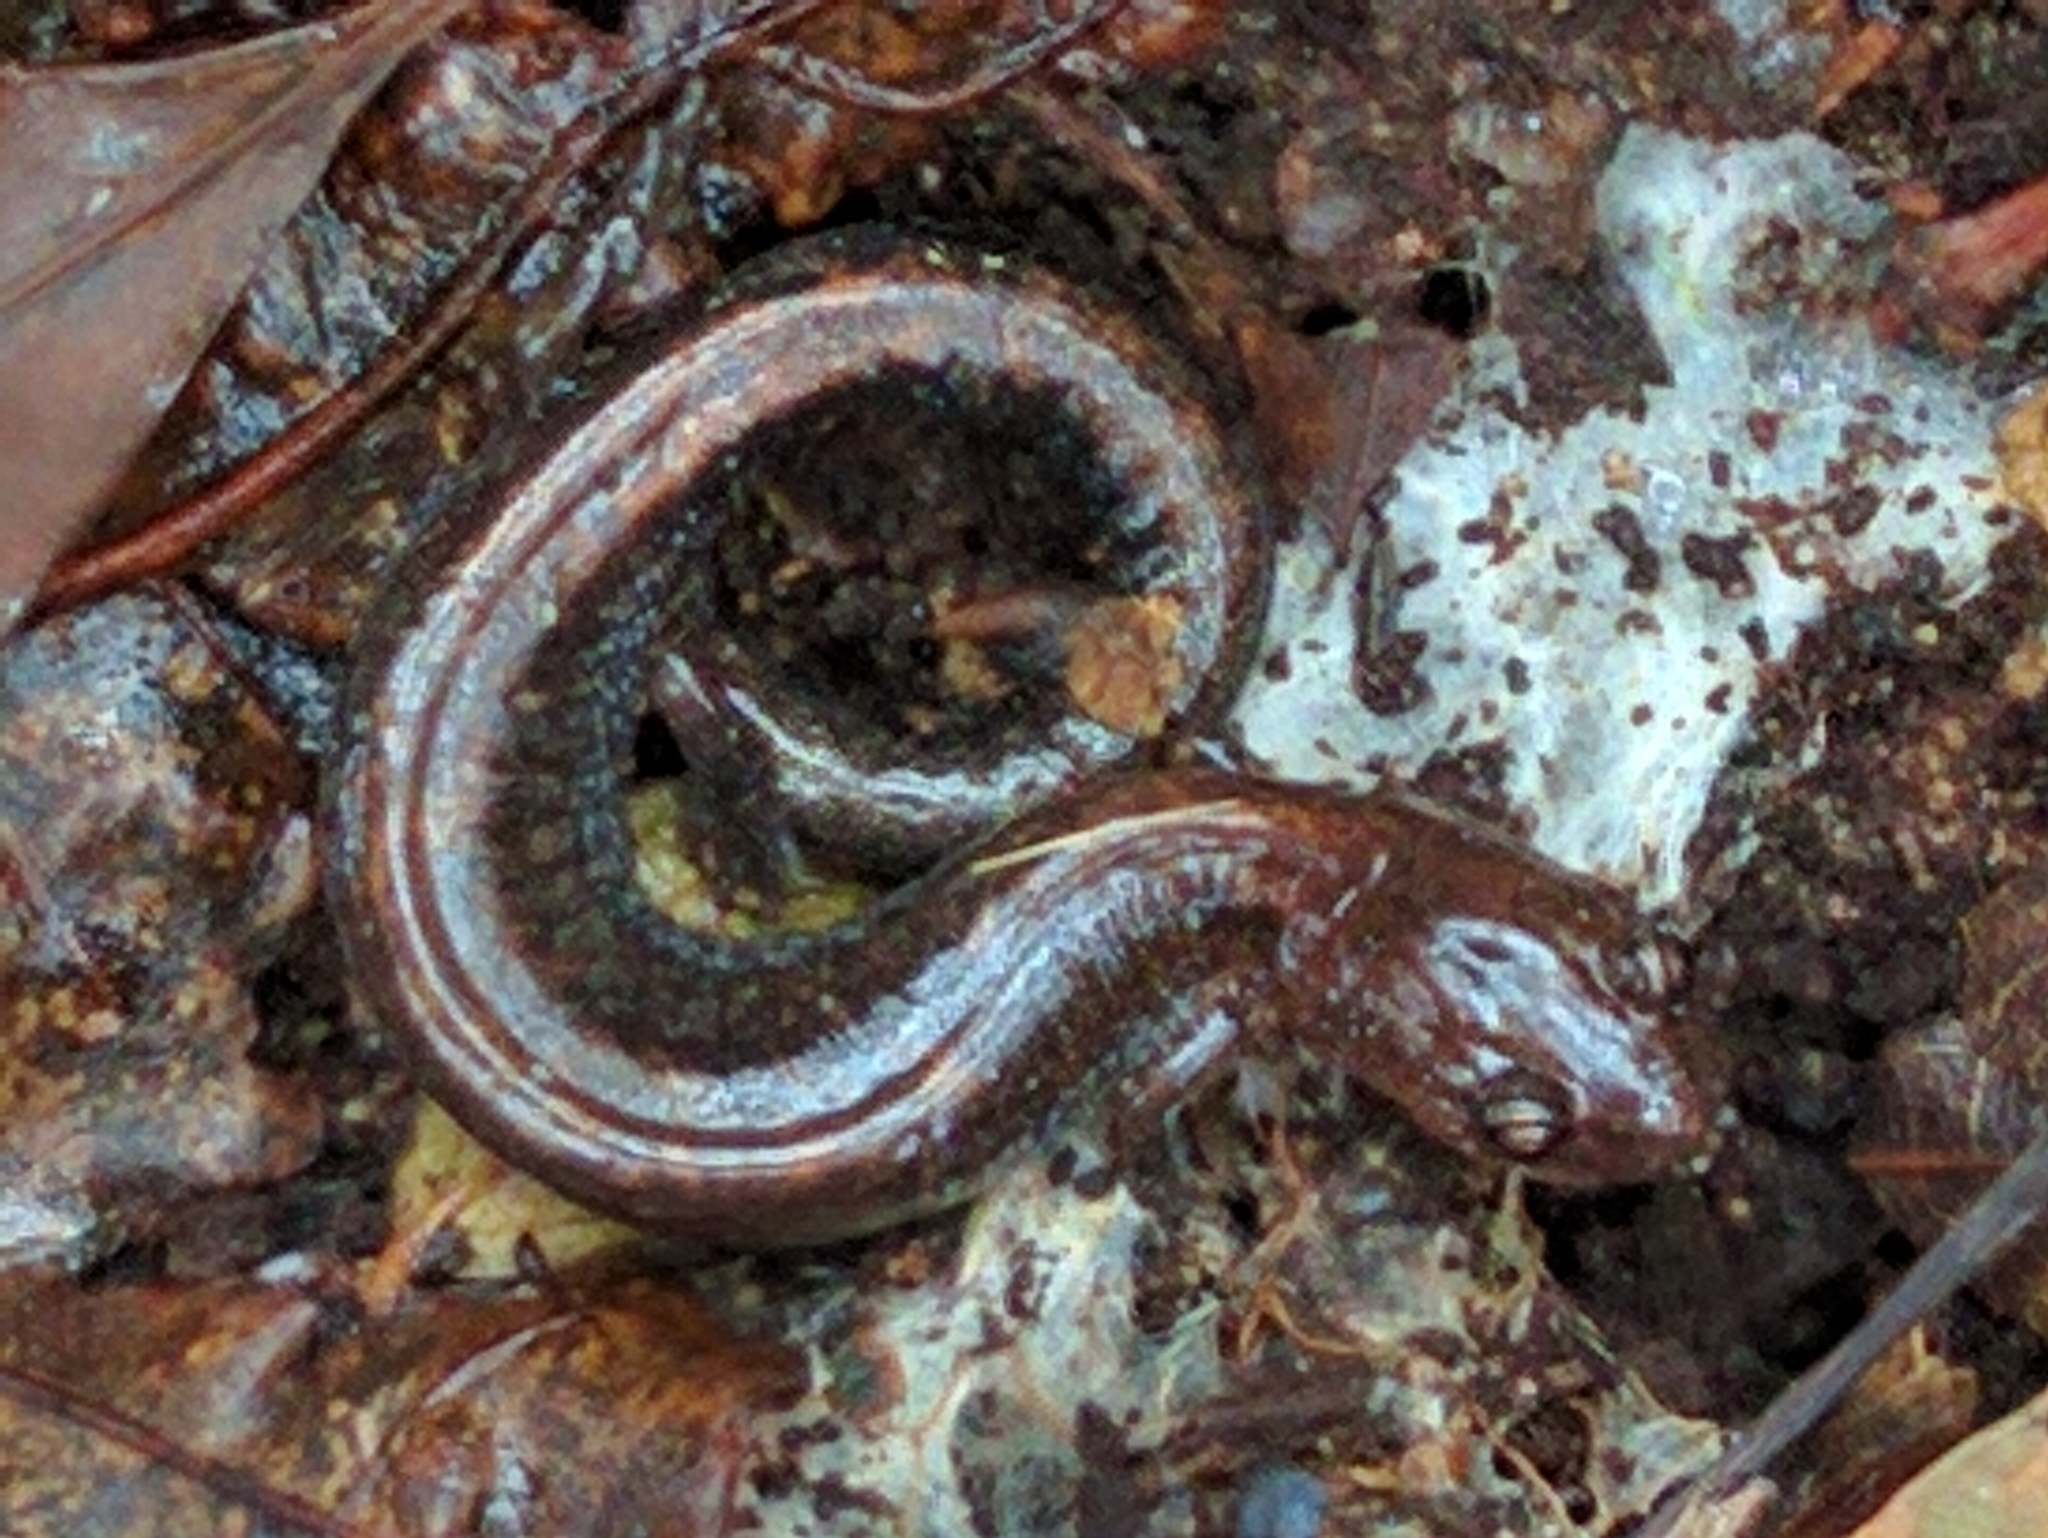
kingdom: Animalia
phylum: Chordata
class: Amphibia
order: Caudata
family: Plethodontidae
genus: Plethodon
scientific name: Plethodon cinereus
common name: Redback salamander
